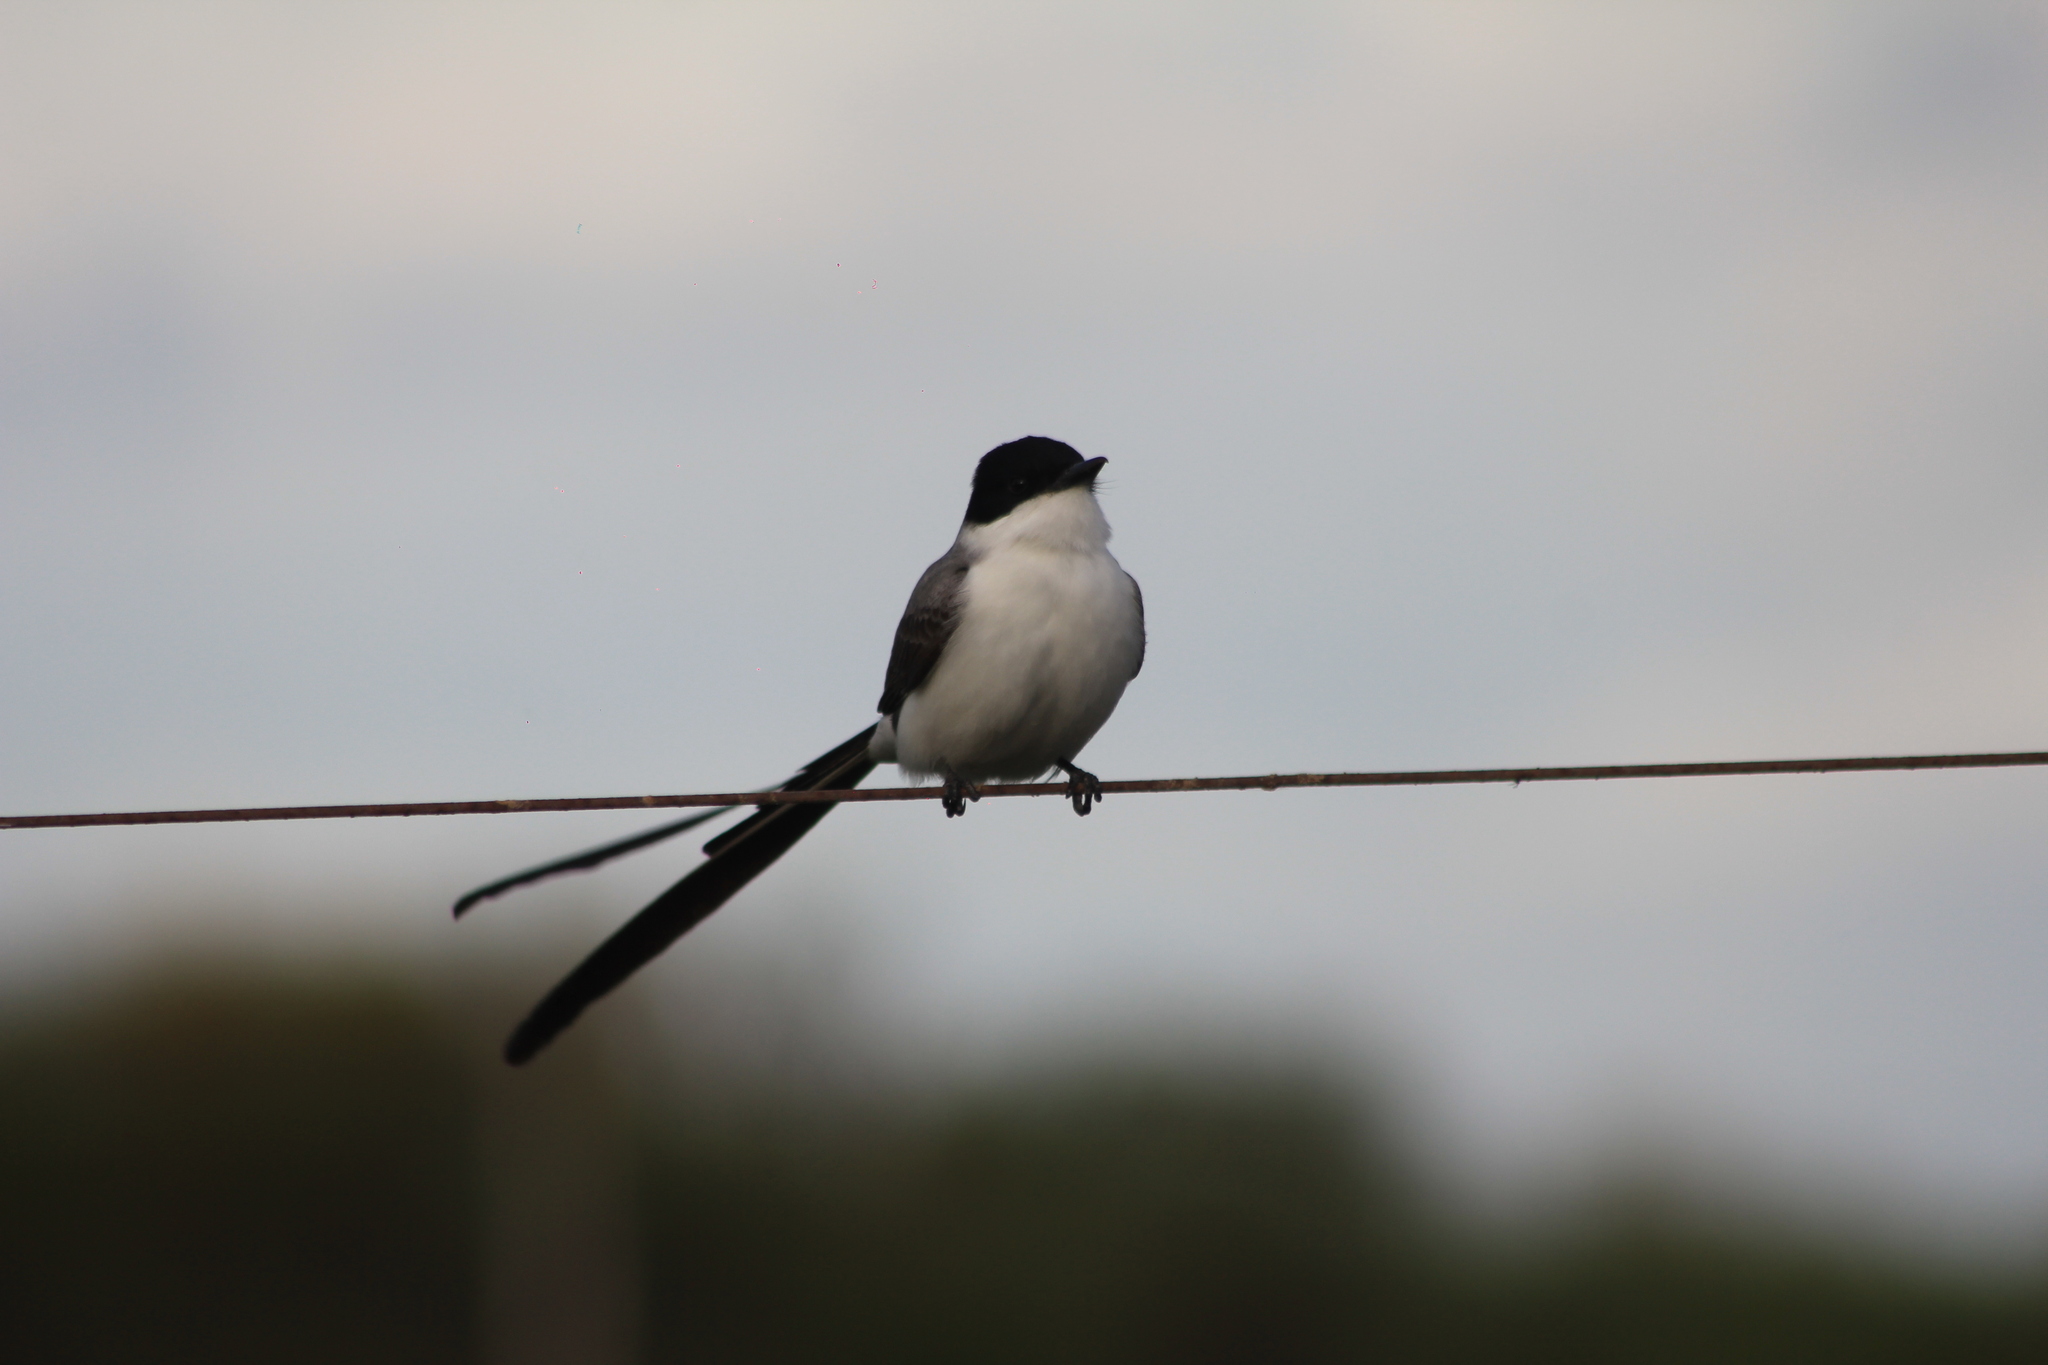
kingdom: Animalia
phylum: Chordata
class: Aves
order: Passeriformes
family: Tyrannidae
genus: Tyrannus
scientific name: Tyrannus savana
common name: Fork-tailed flycatcher
